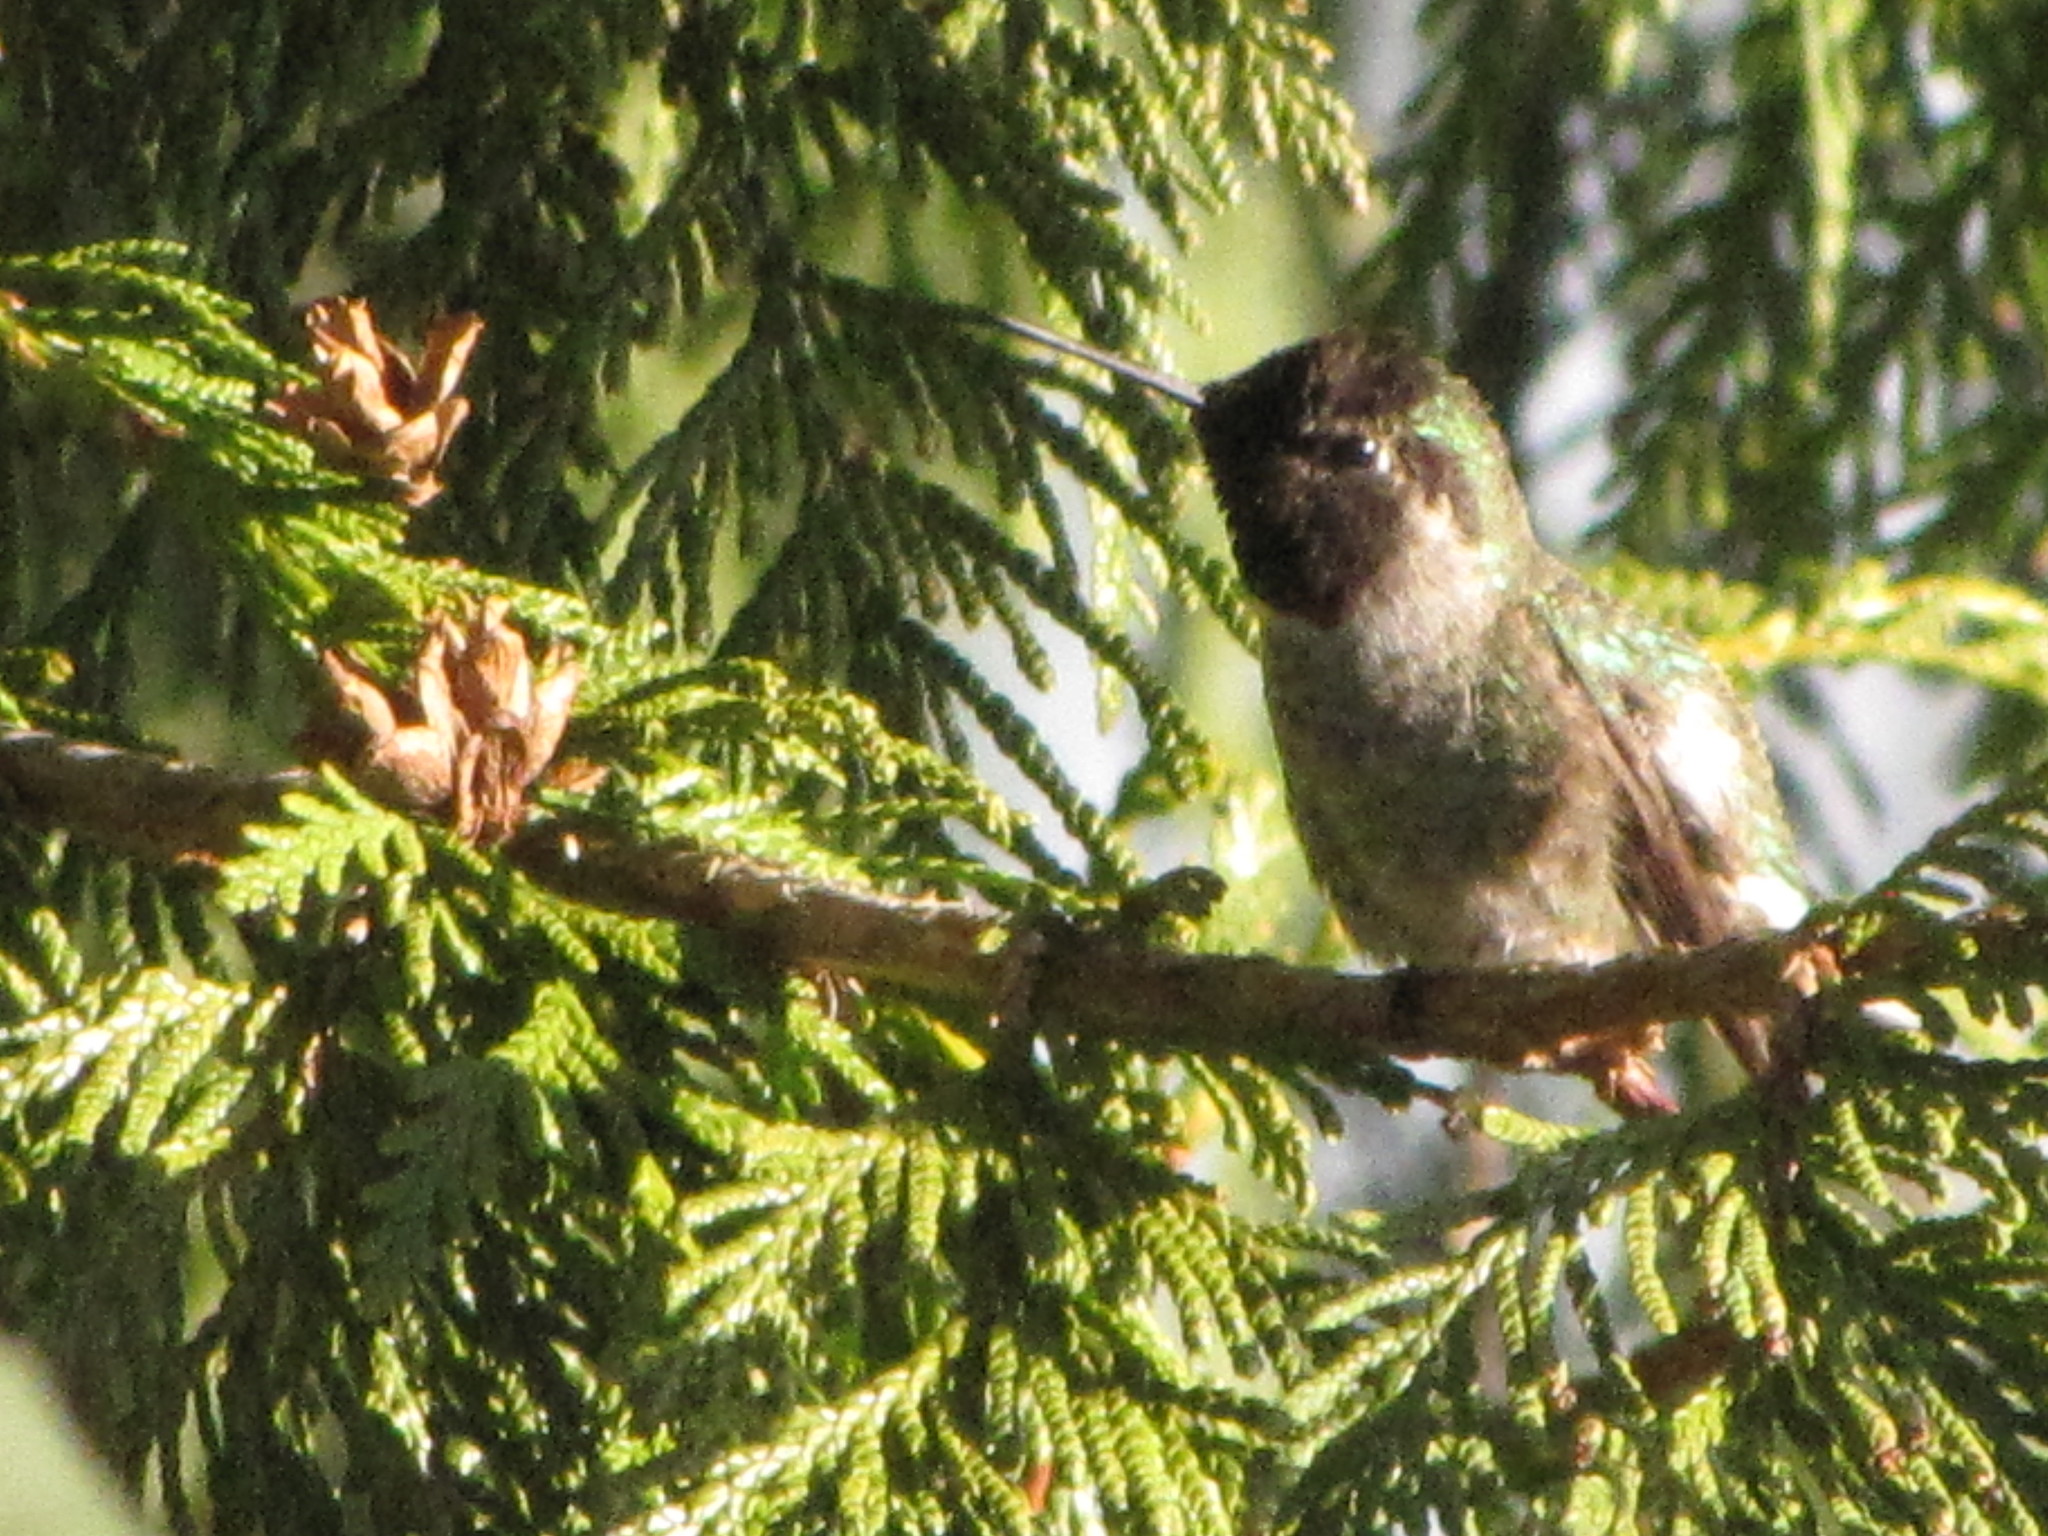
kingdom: Animalia
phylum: Chordata
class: Aves
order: Apodiformes
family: Trochilidae
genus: Calypte
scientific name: Calypte anna
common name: Anna's hummingbird
